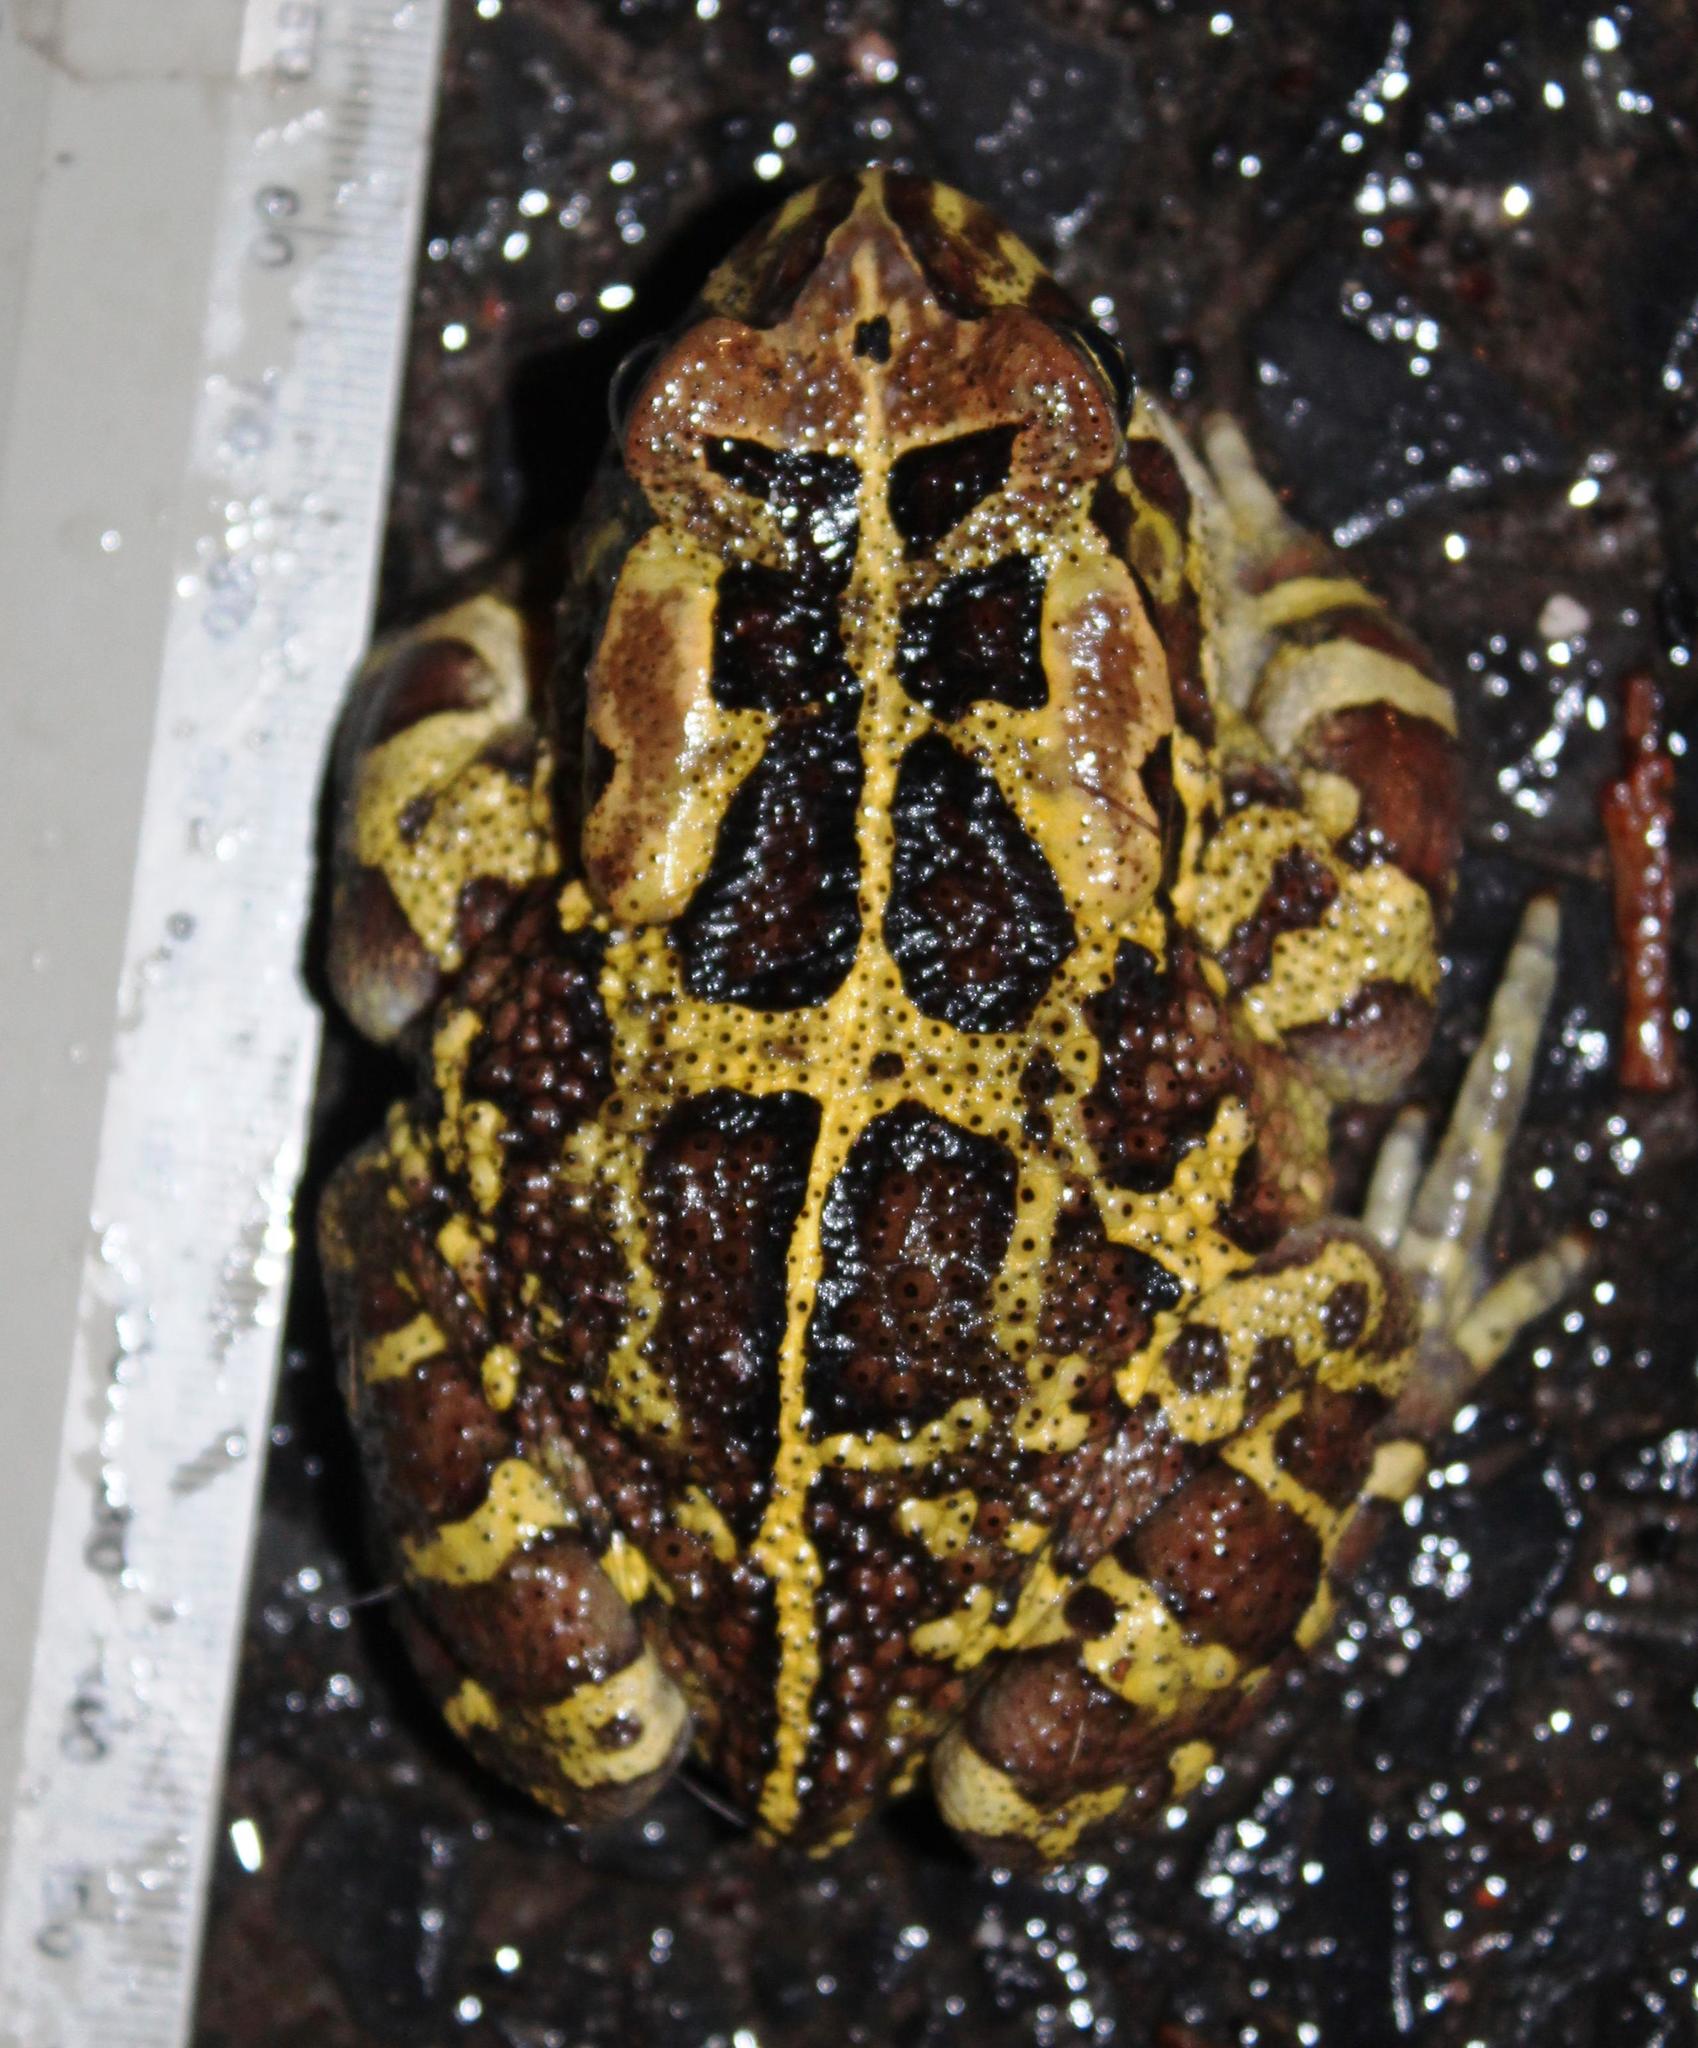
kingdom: Animalia
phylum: Chordata
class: Amphibia
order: Anura
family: Bufonidae
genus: Sclerophrys
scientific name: Sclerophrys pantherina
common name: Panther toad
